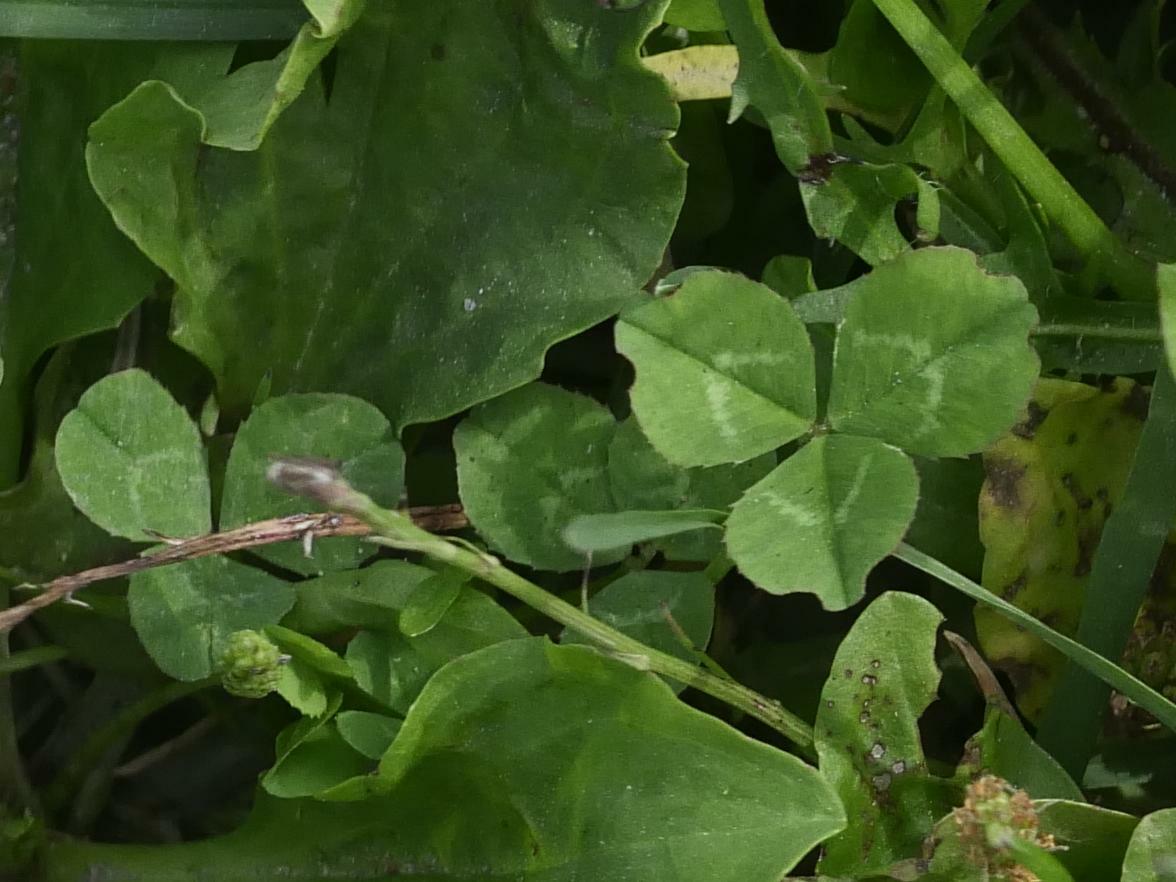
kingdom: Plantae
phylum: Tracheophyta
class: Magnoliopsida
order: Fabales
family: Fabaceae
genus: Trifolium
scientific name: Trifolium repens
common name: White clover
